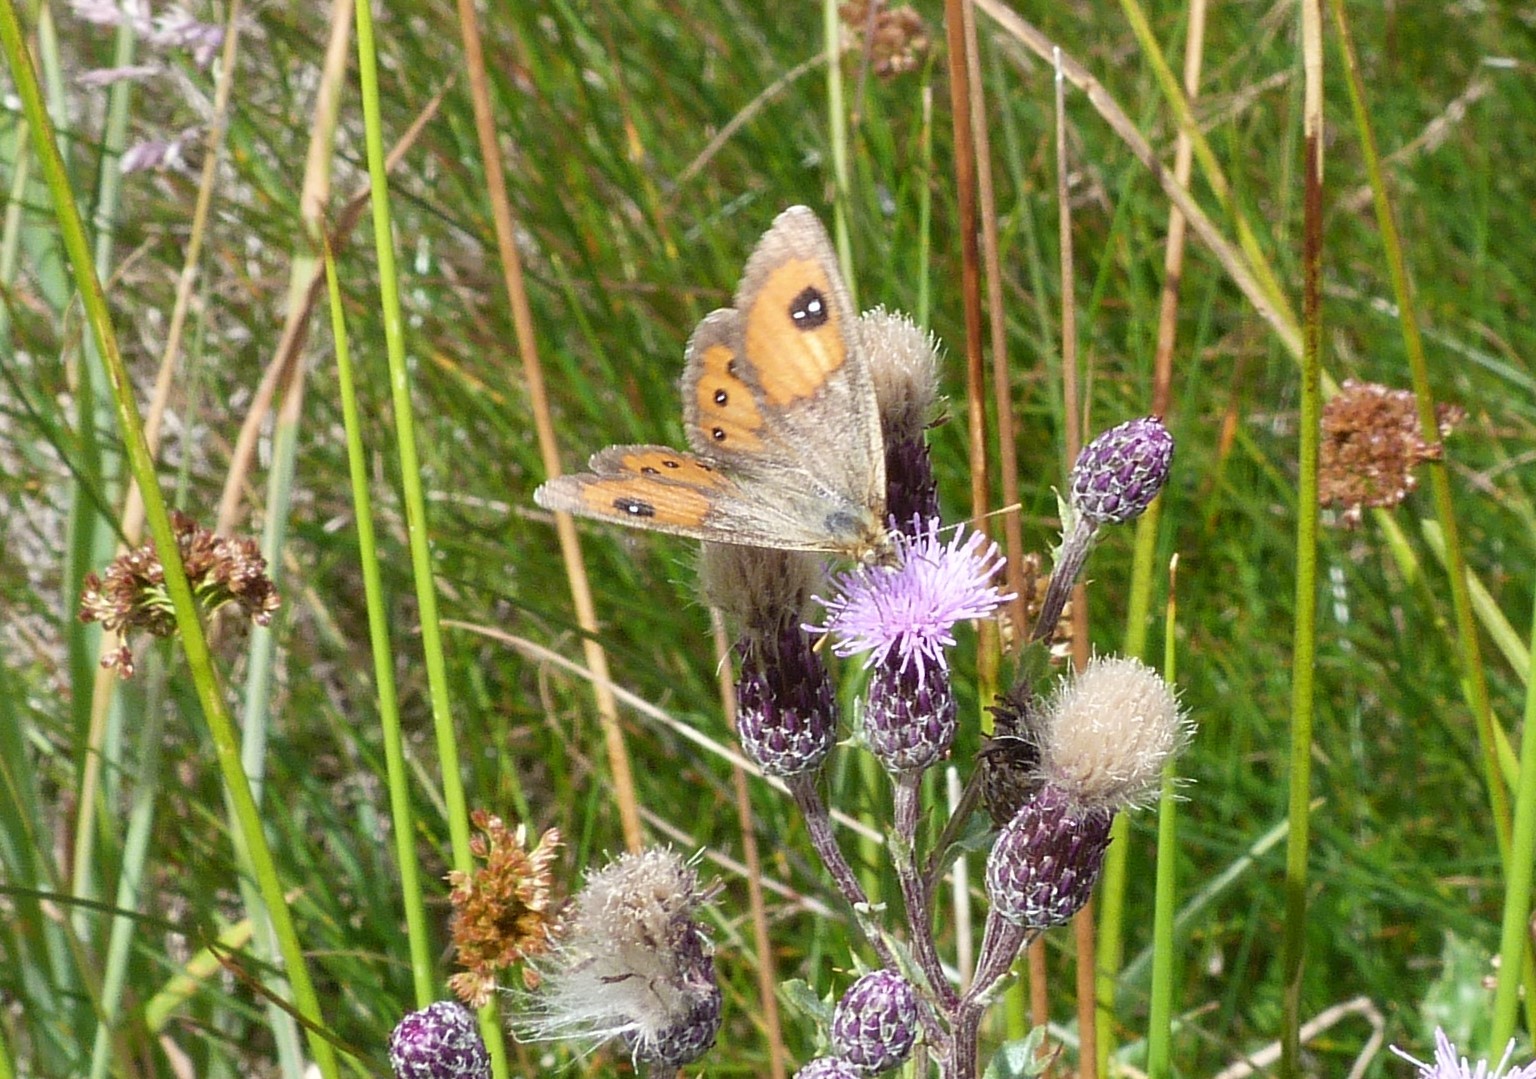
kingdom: Animalia
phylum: Arthropoda
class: Insecta
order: Lepidoptera
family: Nymphalidae
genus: Argyrophenga
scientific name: Argyrophenga antipodum
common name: Common tussock butterfly
